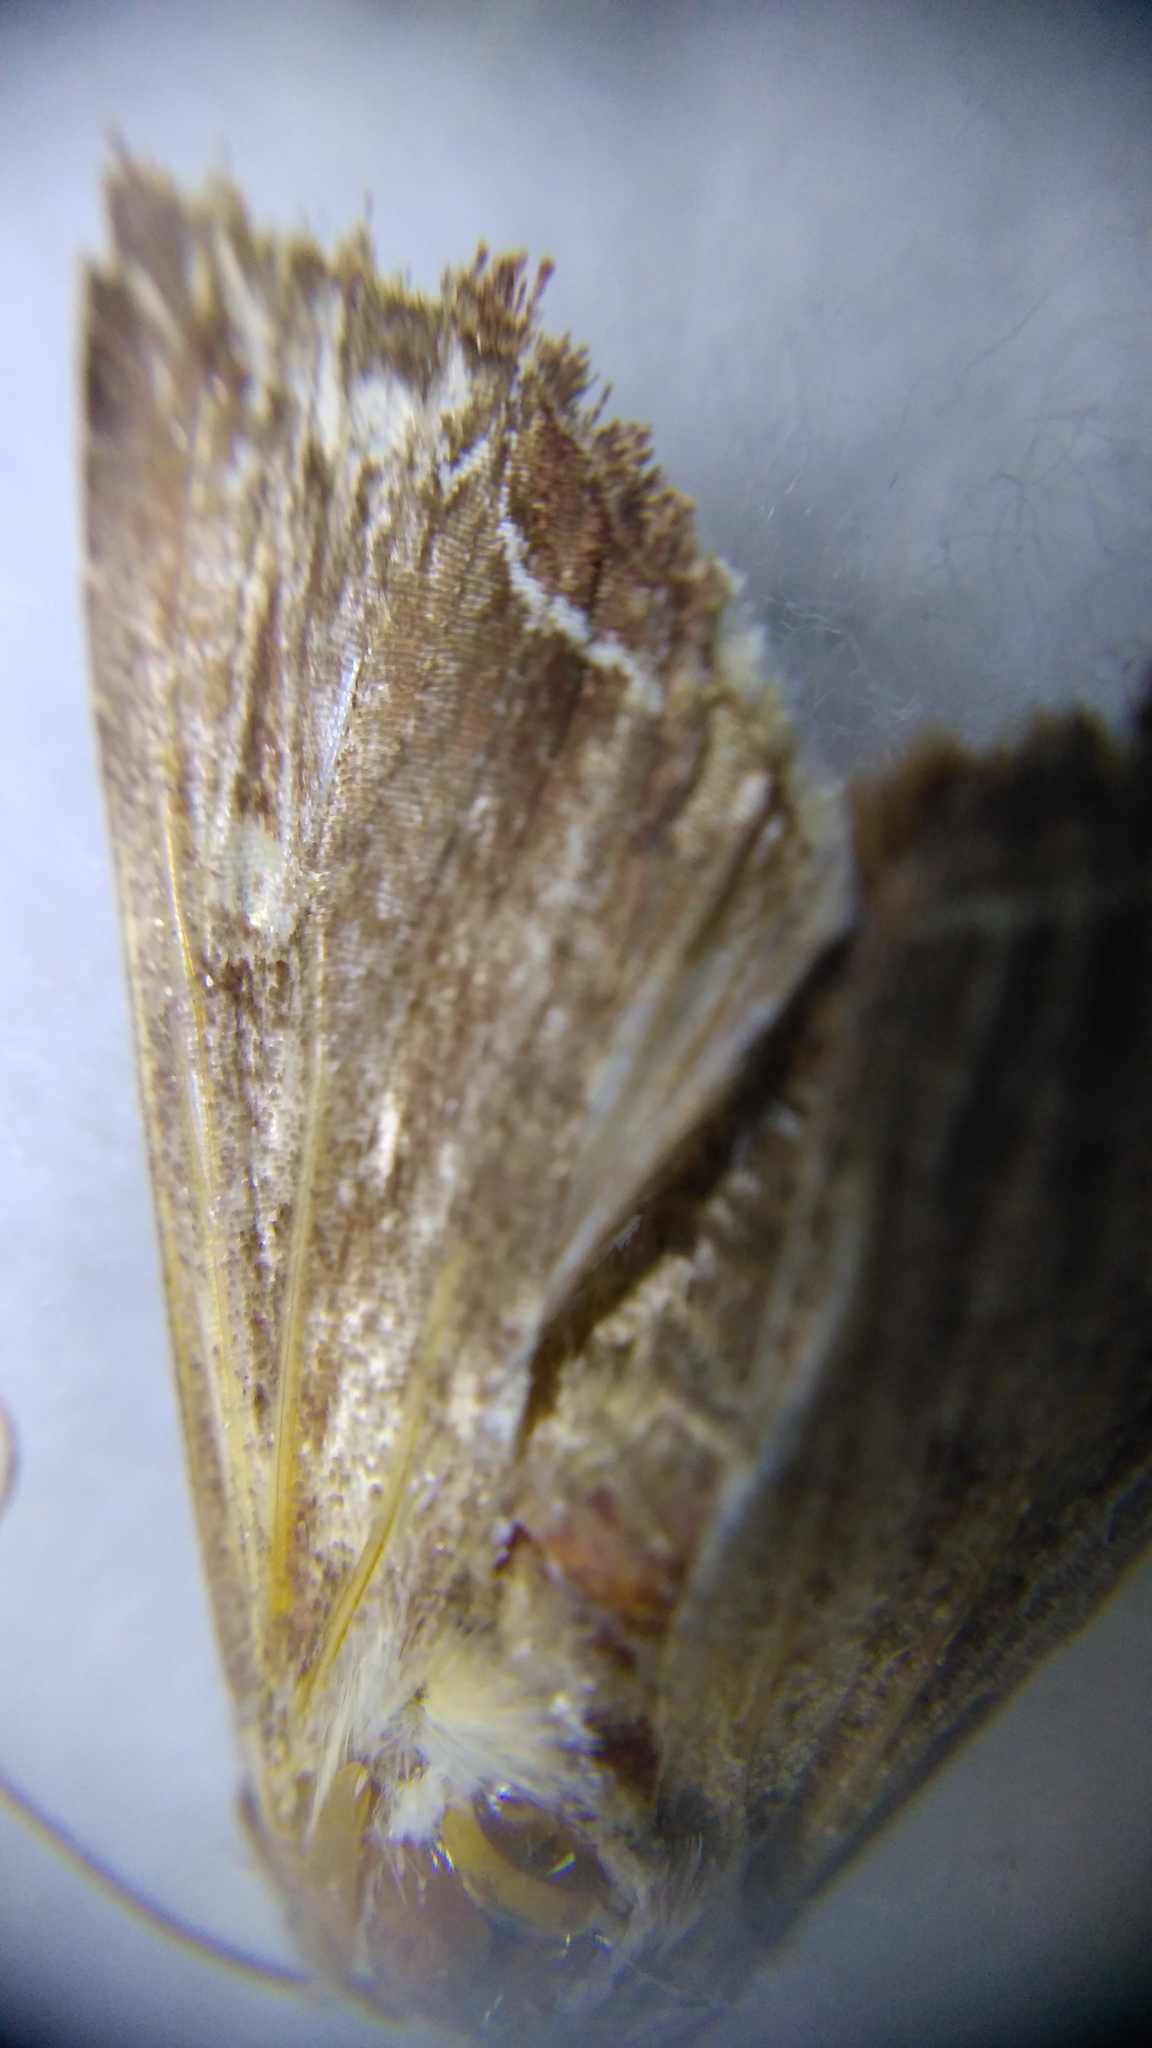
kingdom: Animalia
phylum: Arthropoda
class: Insecta
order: Lepidoptera
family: Noctuidae
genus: Lacanobia
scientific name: Lacanobia oleracea
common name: Bright-line brown-eye
